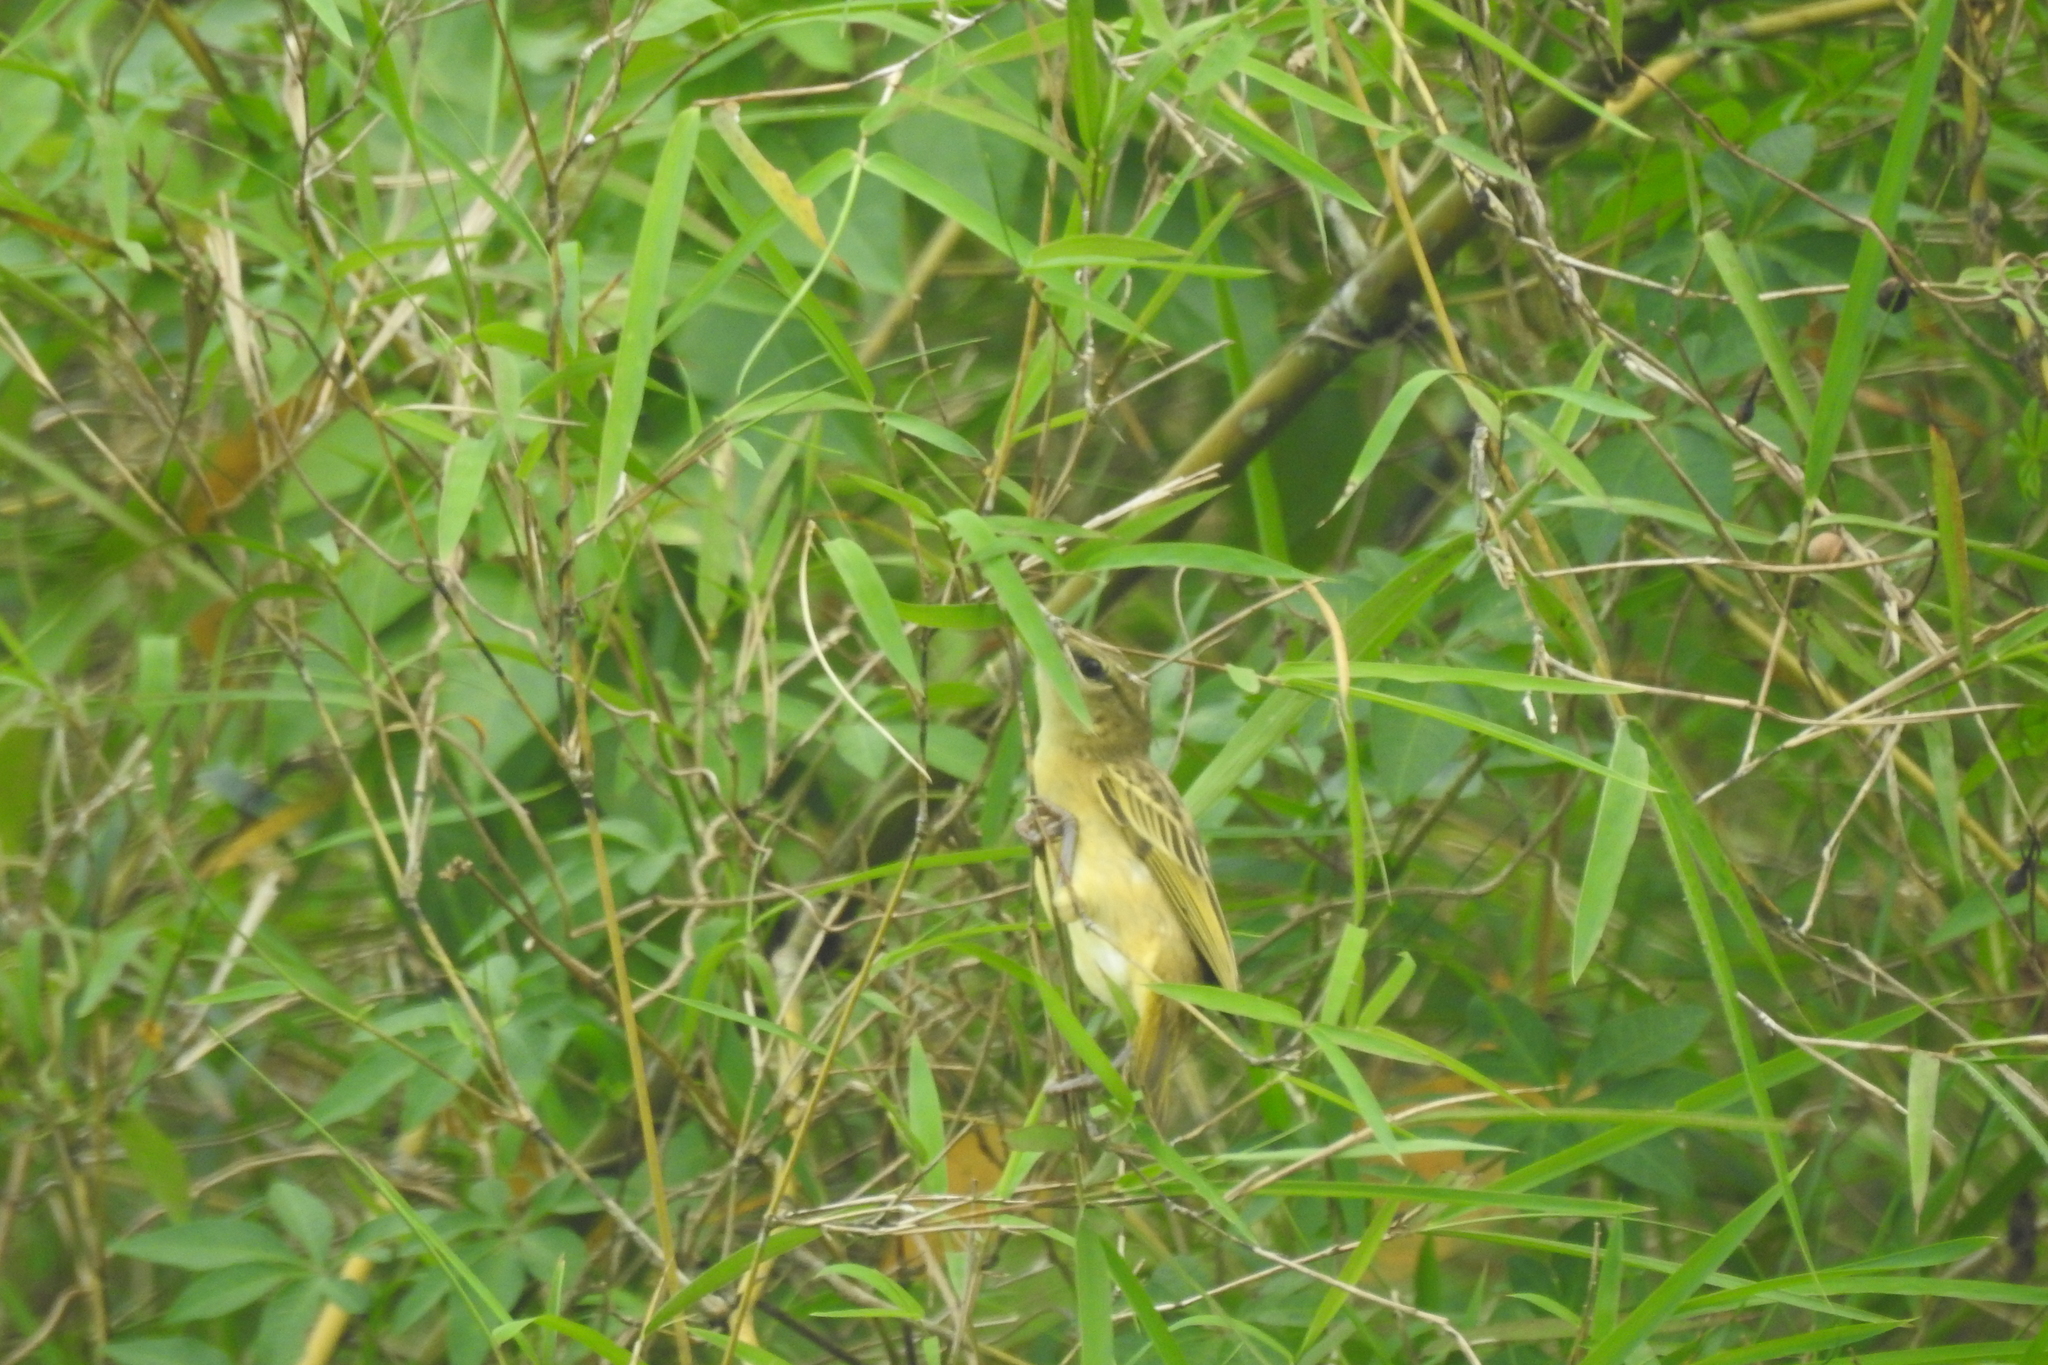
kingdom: Animalia
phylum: Chordata
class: Aves
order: Passeriformes
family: Ploceidae
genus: Ploceus
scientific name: Ploceus jacksoni
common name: Golden-backed weaver
